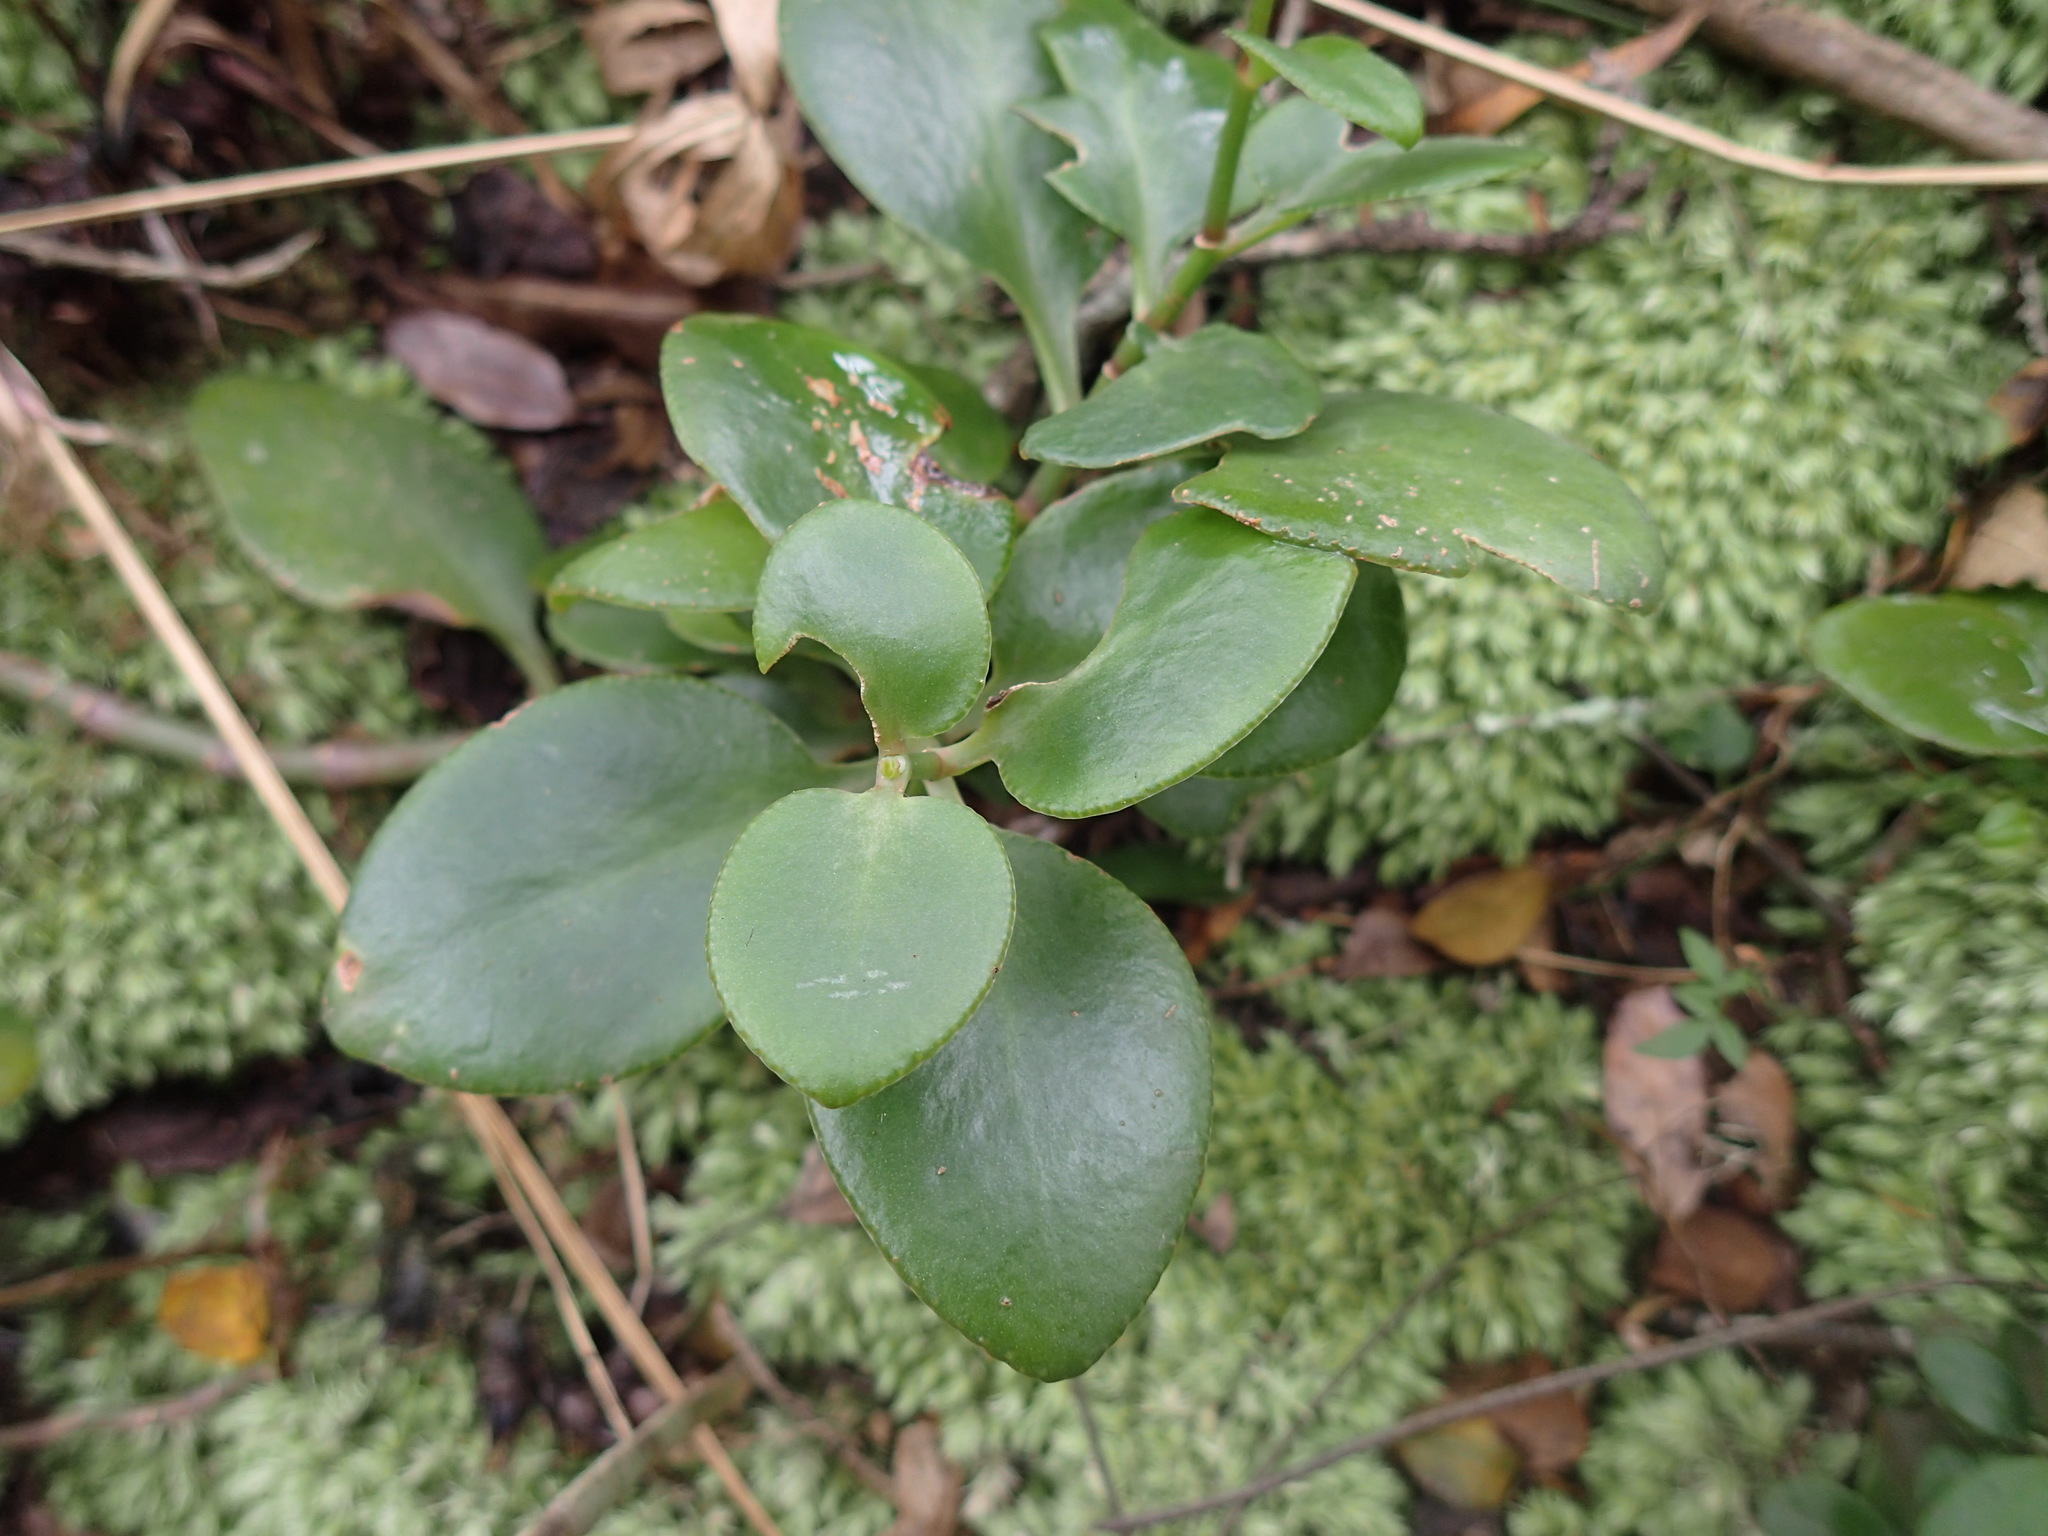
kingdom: Plantae
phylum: Tracheophyta
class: Magnoliopsida
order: Saxifragales
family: Crassulaceae
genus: Crassula
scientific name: Crassula sarmentosa
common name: Jade-tree
